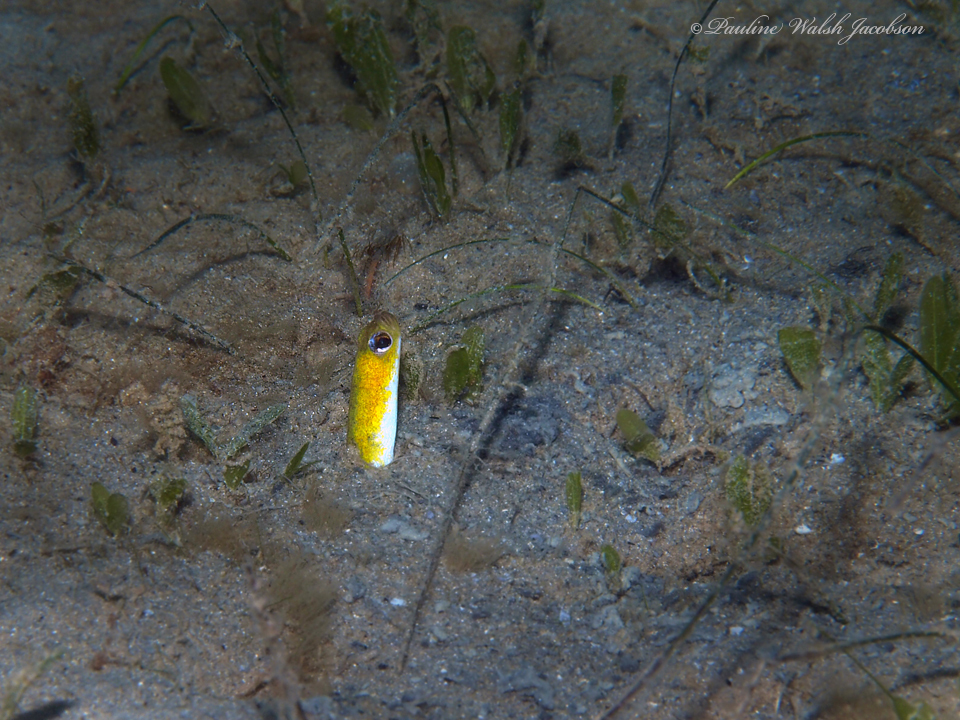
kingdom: Animalia
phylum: Chordata
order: Anguilliformes
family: Congridae
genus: Heteroconger
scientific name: Heteroconger luteolus
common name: Yellow garden eel
